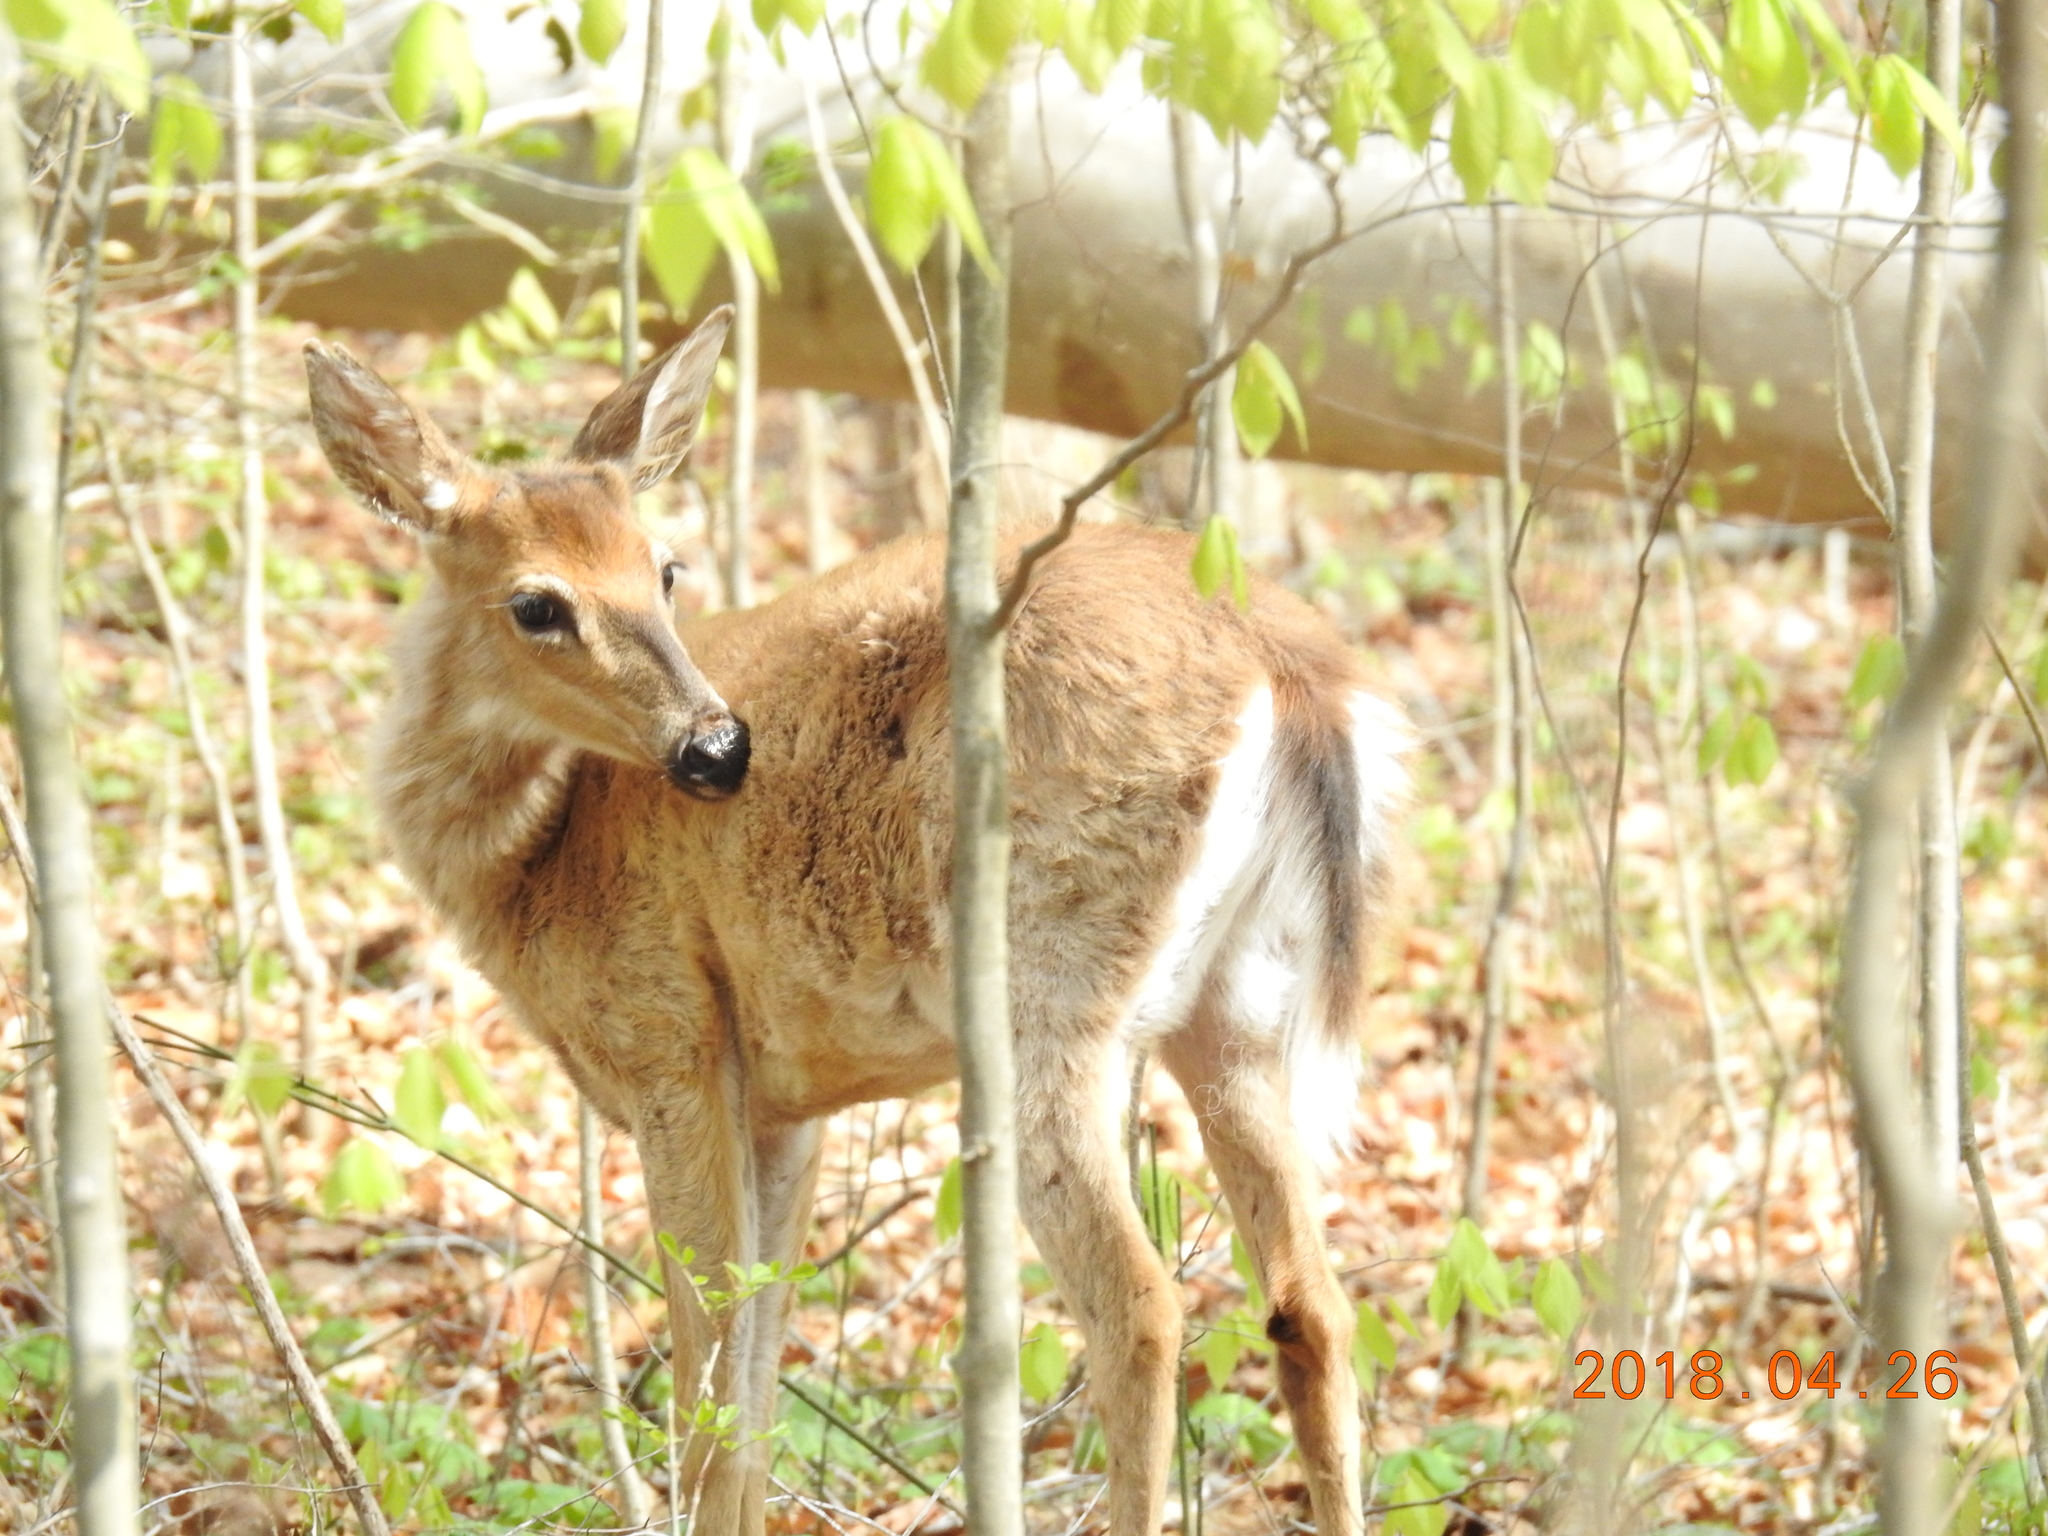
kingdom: Animalia
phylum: Chordata
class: Mammalia
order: Artiodactyla
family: Cervidae
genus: Odocoileus
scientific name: Odocoileus virginianus
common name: White-tailed deer
